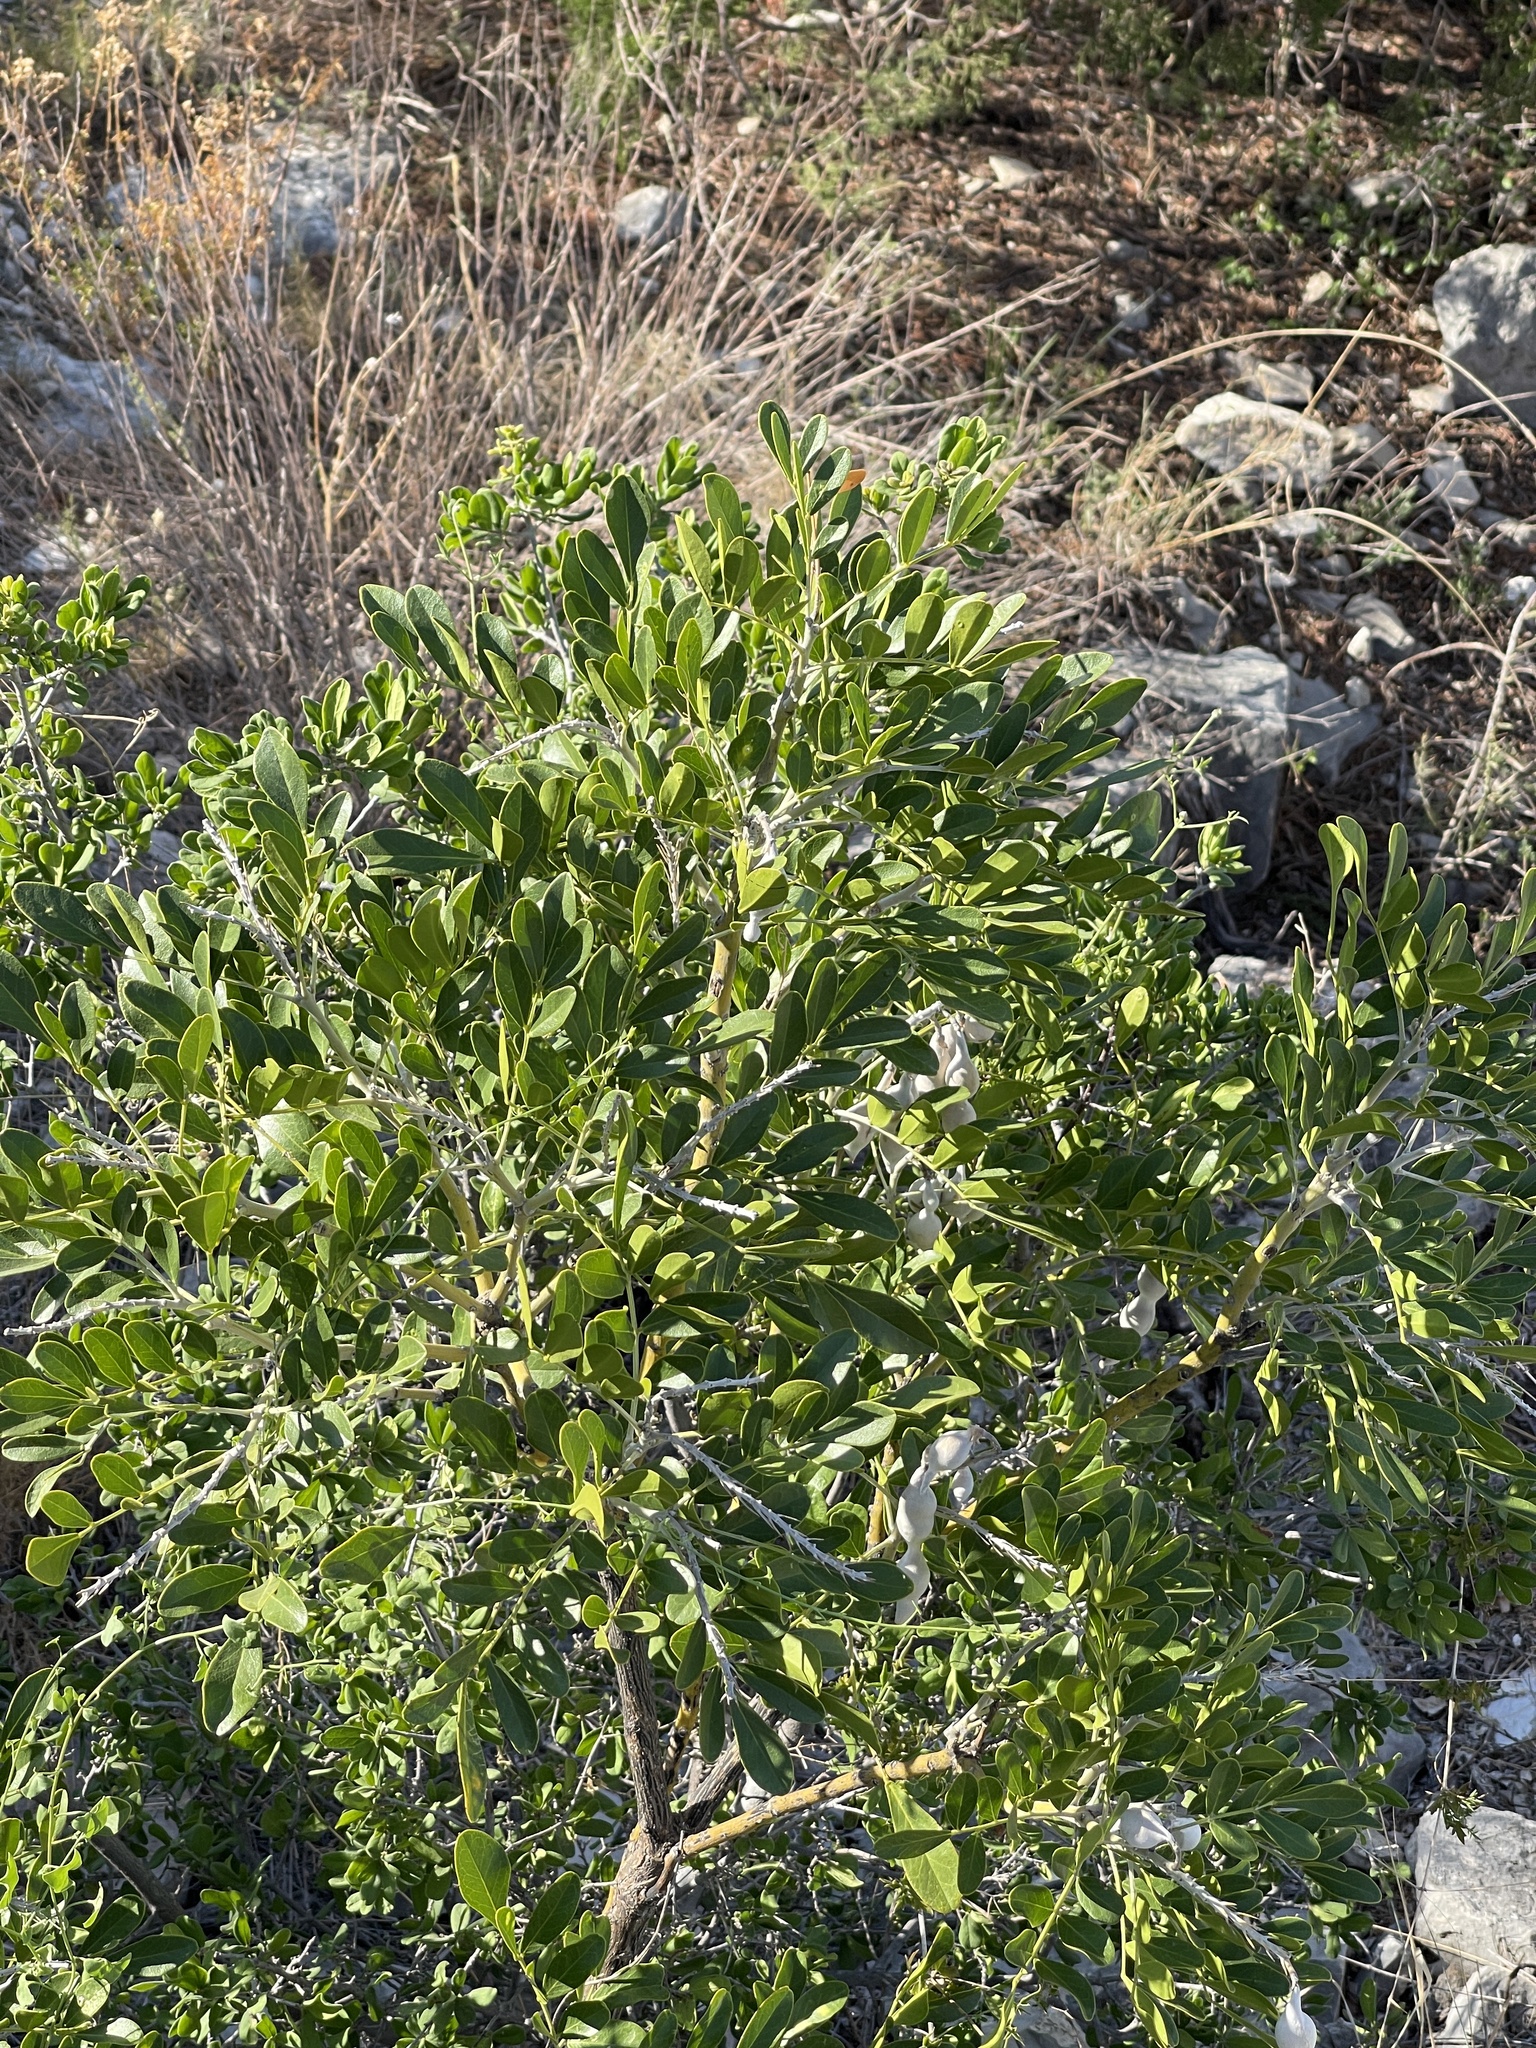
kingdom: Plantae
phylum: Tracheophyta
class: Magnoliopsida
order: Fabales
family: Fabaceae
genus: Dermatophyllum
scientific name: Dermatophyllum secundiflorum
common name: Texas-mountain-laurel
